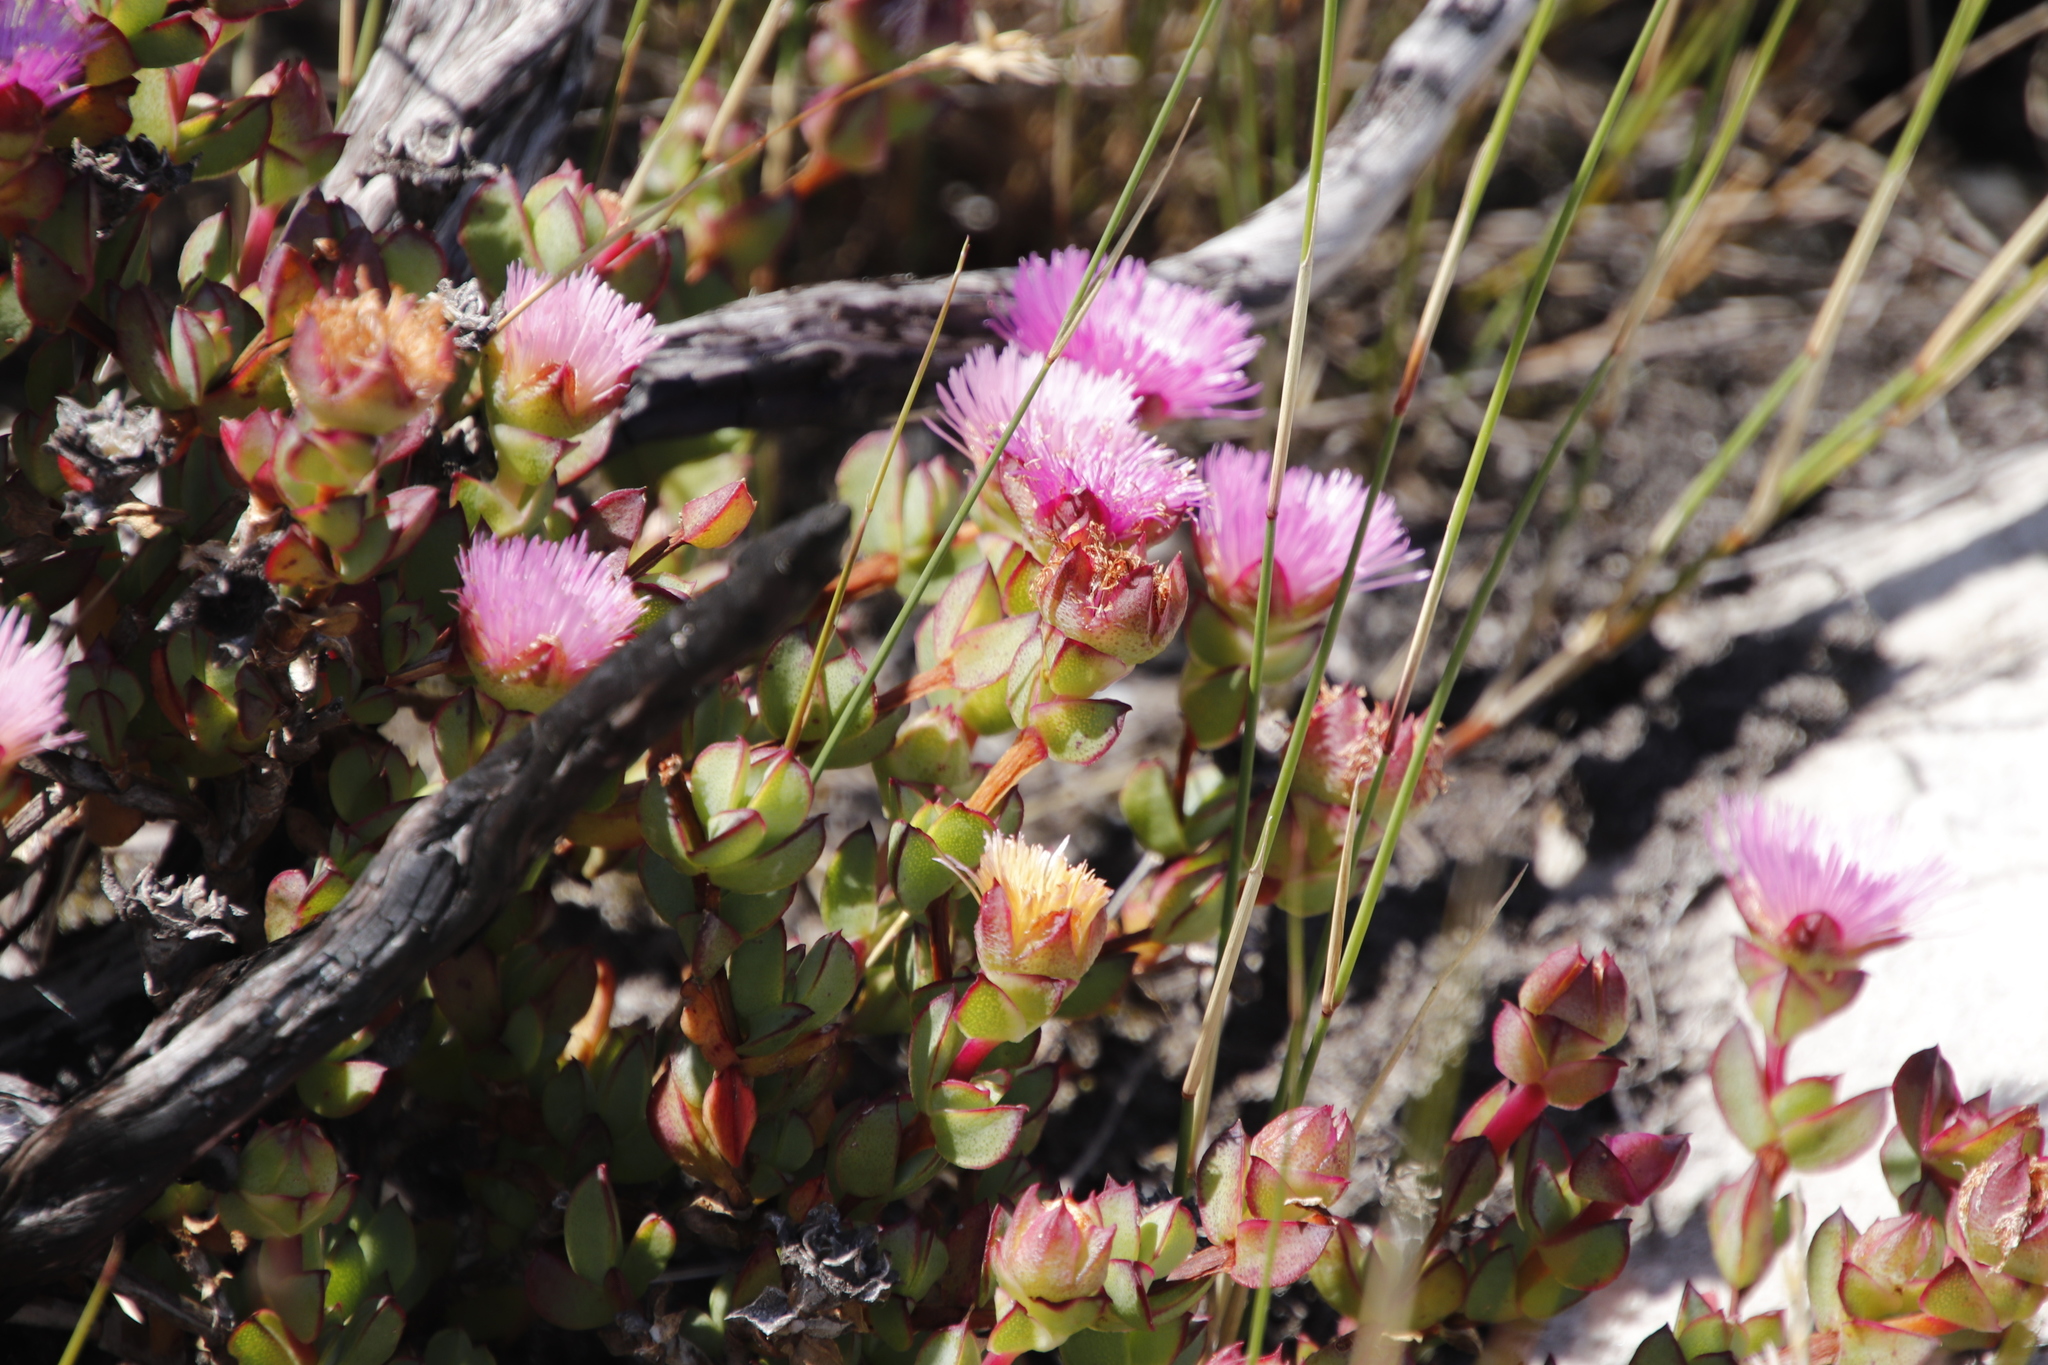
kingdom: Plantae
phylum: Tracheophyta
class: Magnoliopsida
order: Caryophyllales
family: Aizoaceae
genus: Erepsia
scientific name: Erepsia forficata
